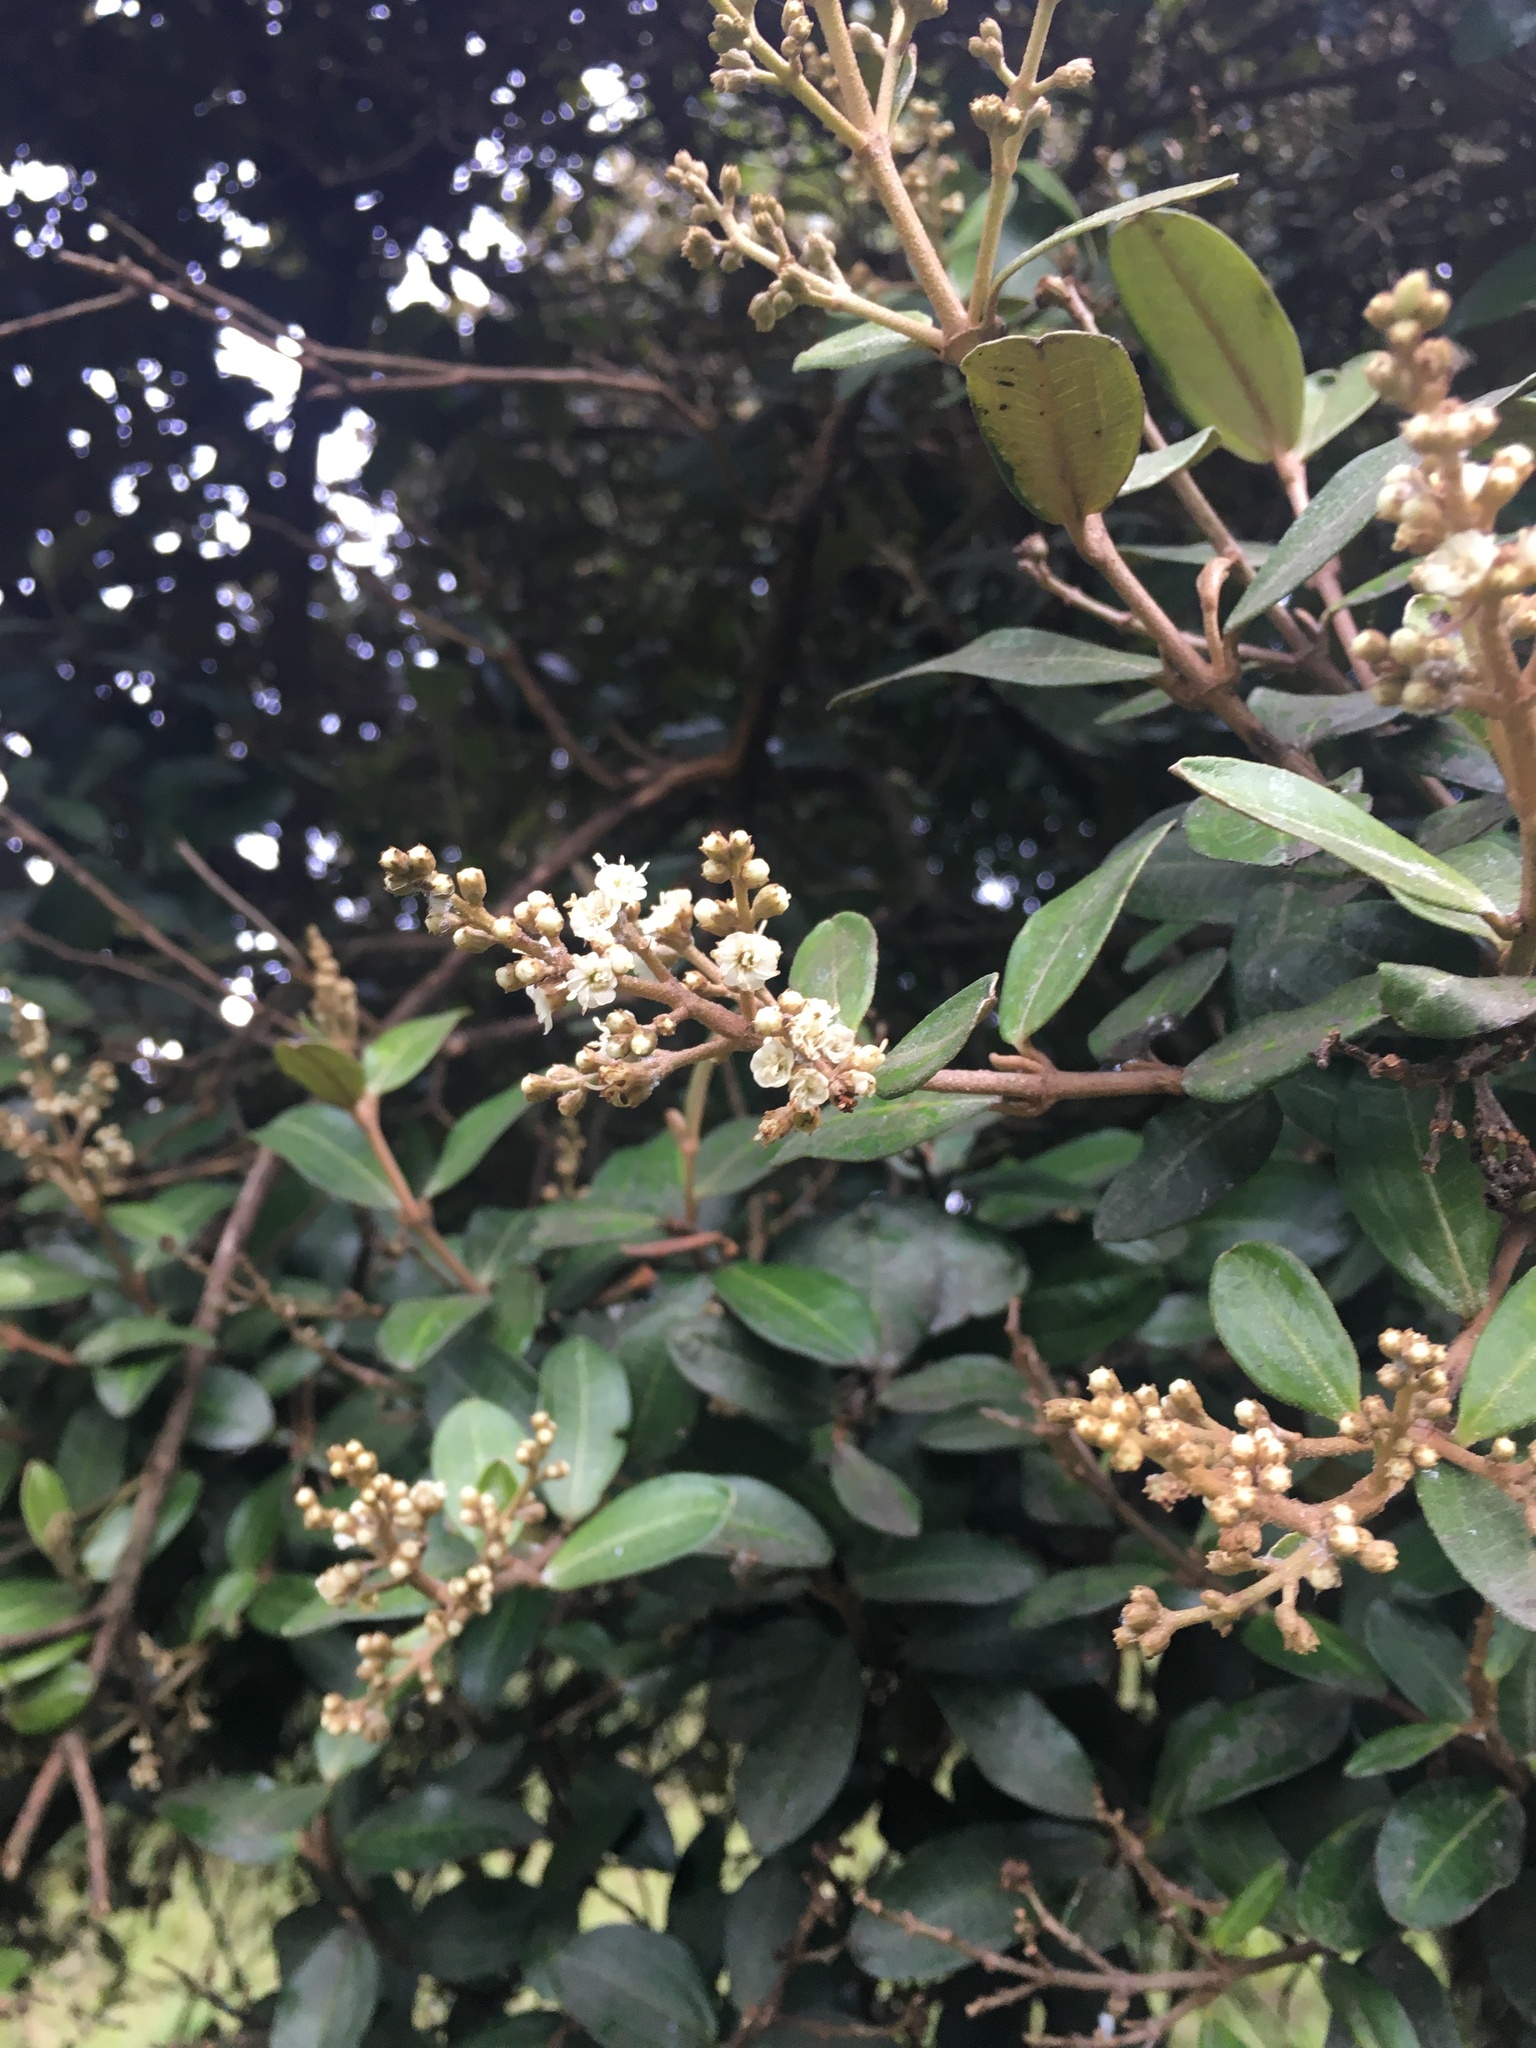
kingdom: Plantae
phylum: Tracheophyta
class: Magnoliopsida
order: Myrtales
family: Melastomataceae
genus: Miconia
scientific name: Miconia squamulosa
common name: Squamulose maya
